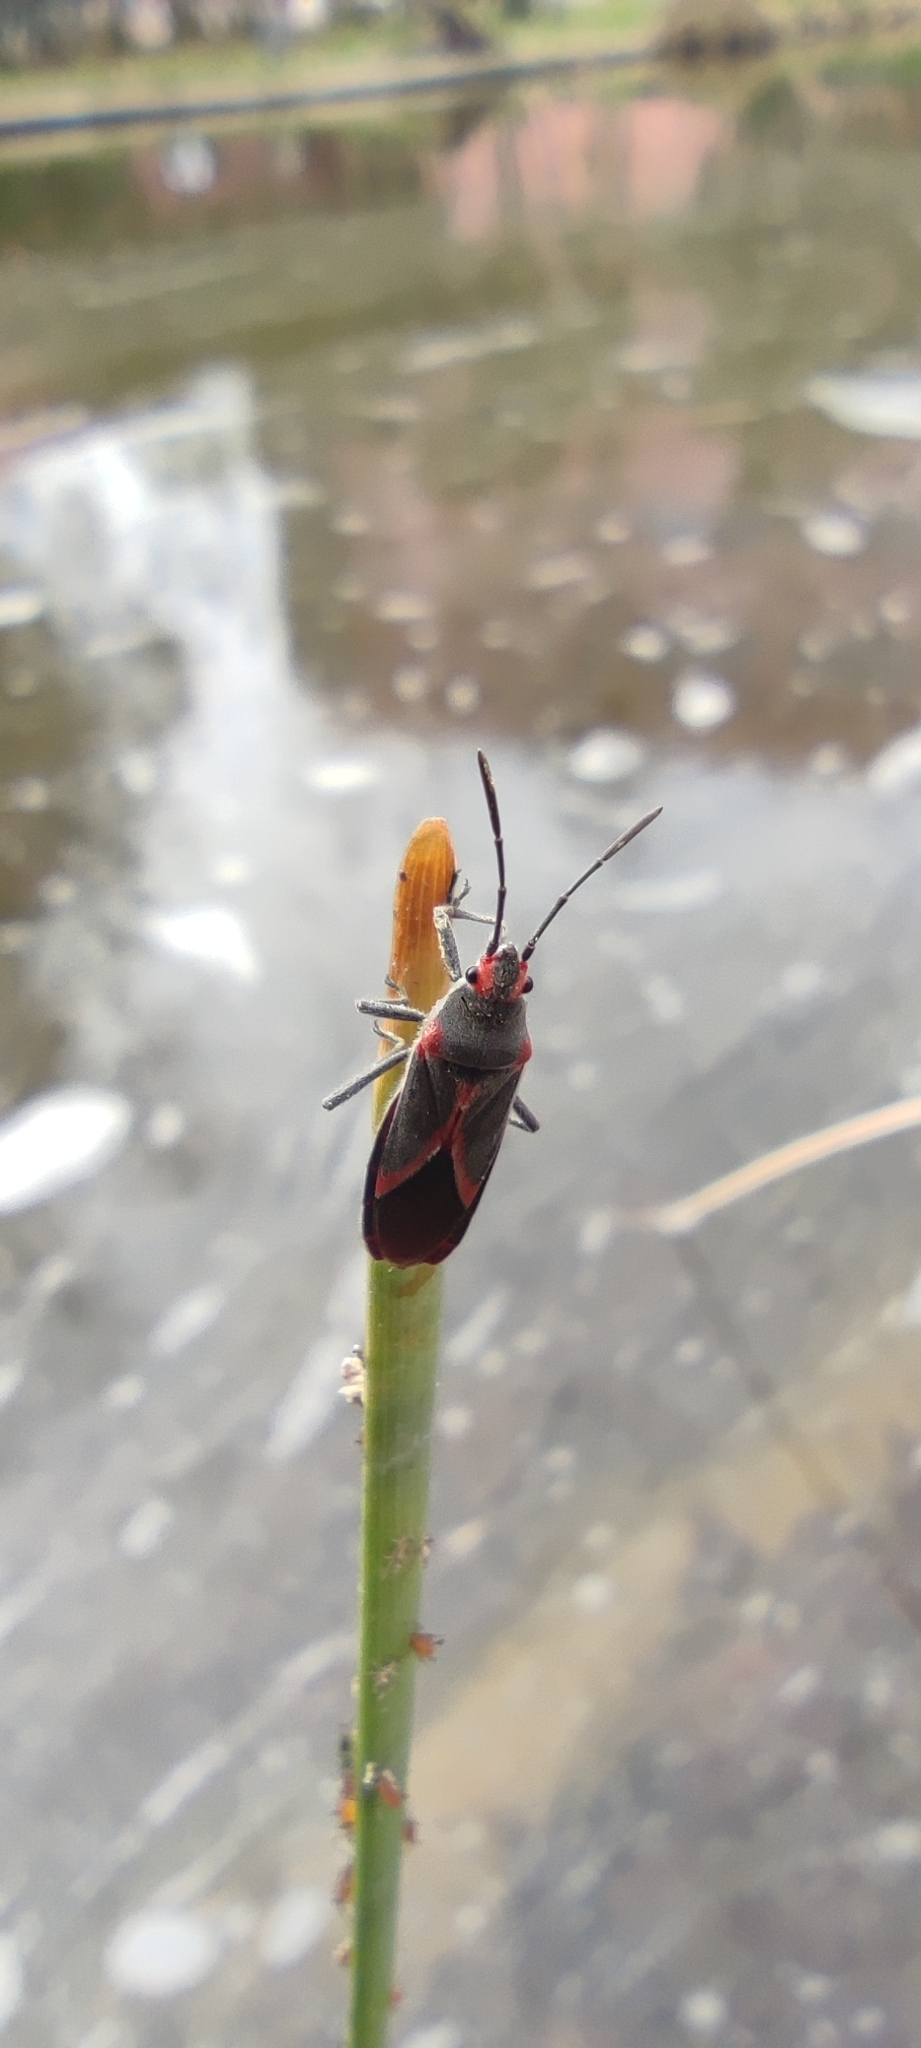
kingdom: Animalia
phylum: Arthropoda
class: Insecta
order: Hemiptera
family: Lygaeidae
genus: Caenocoris
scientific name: Caenocoris nerii
